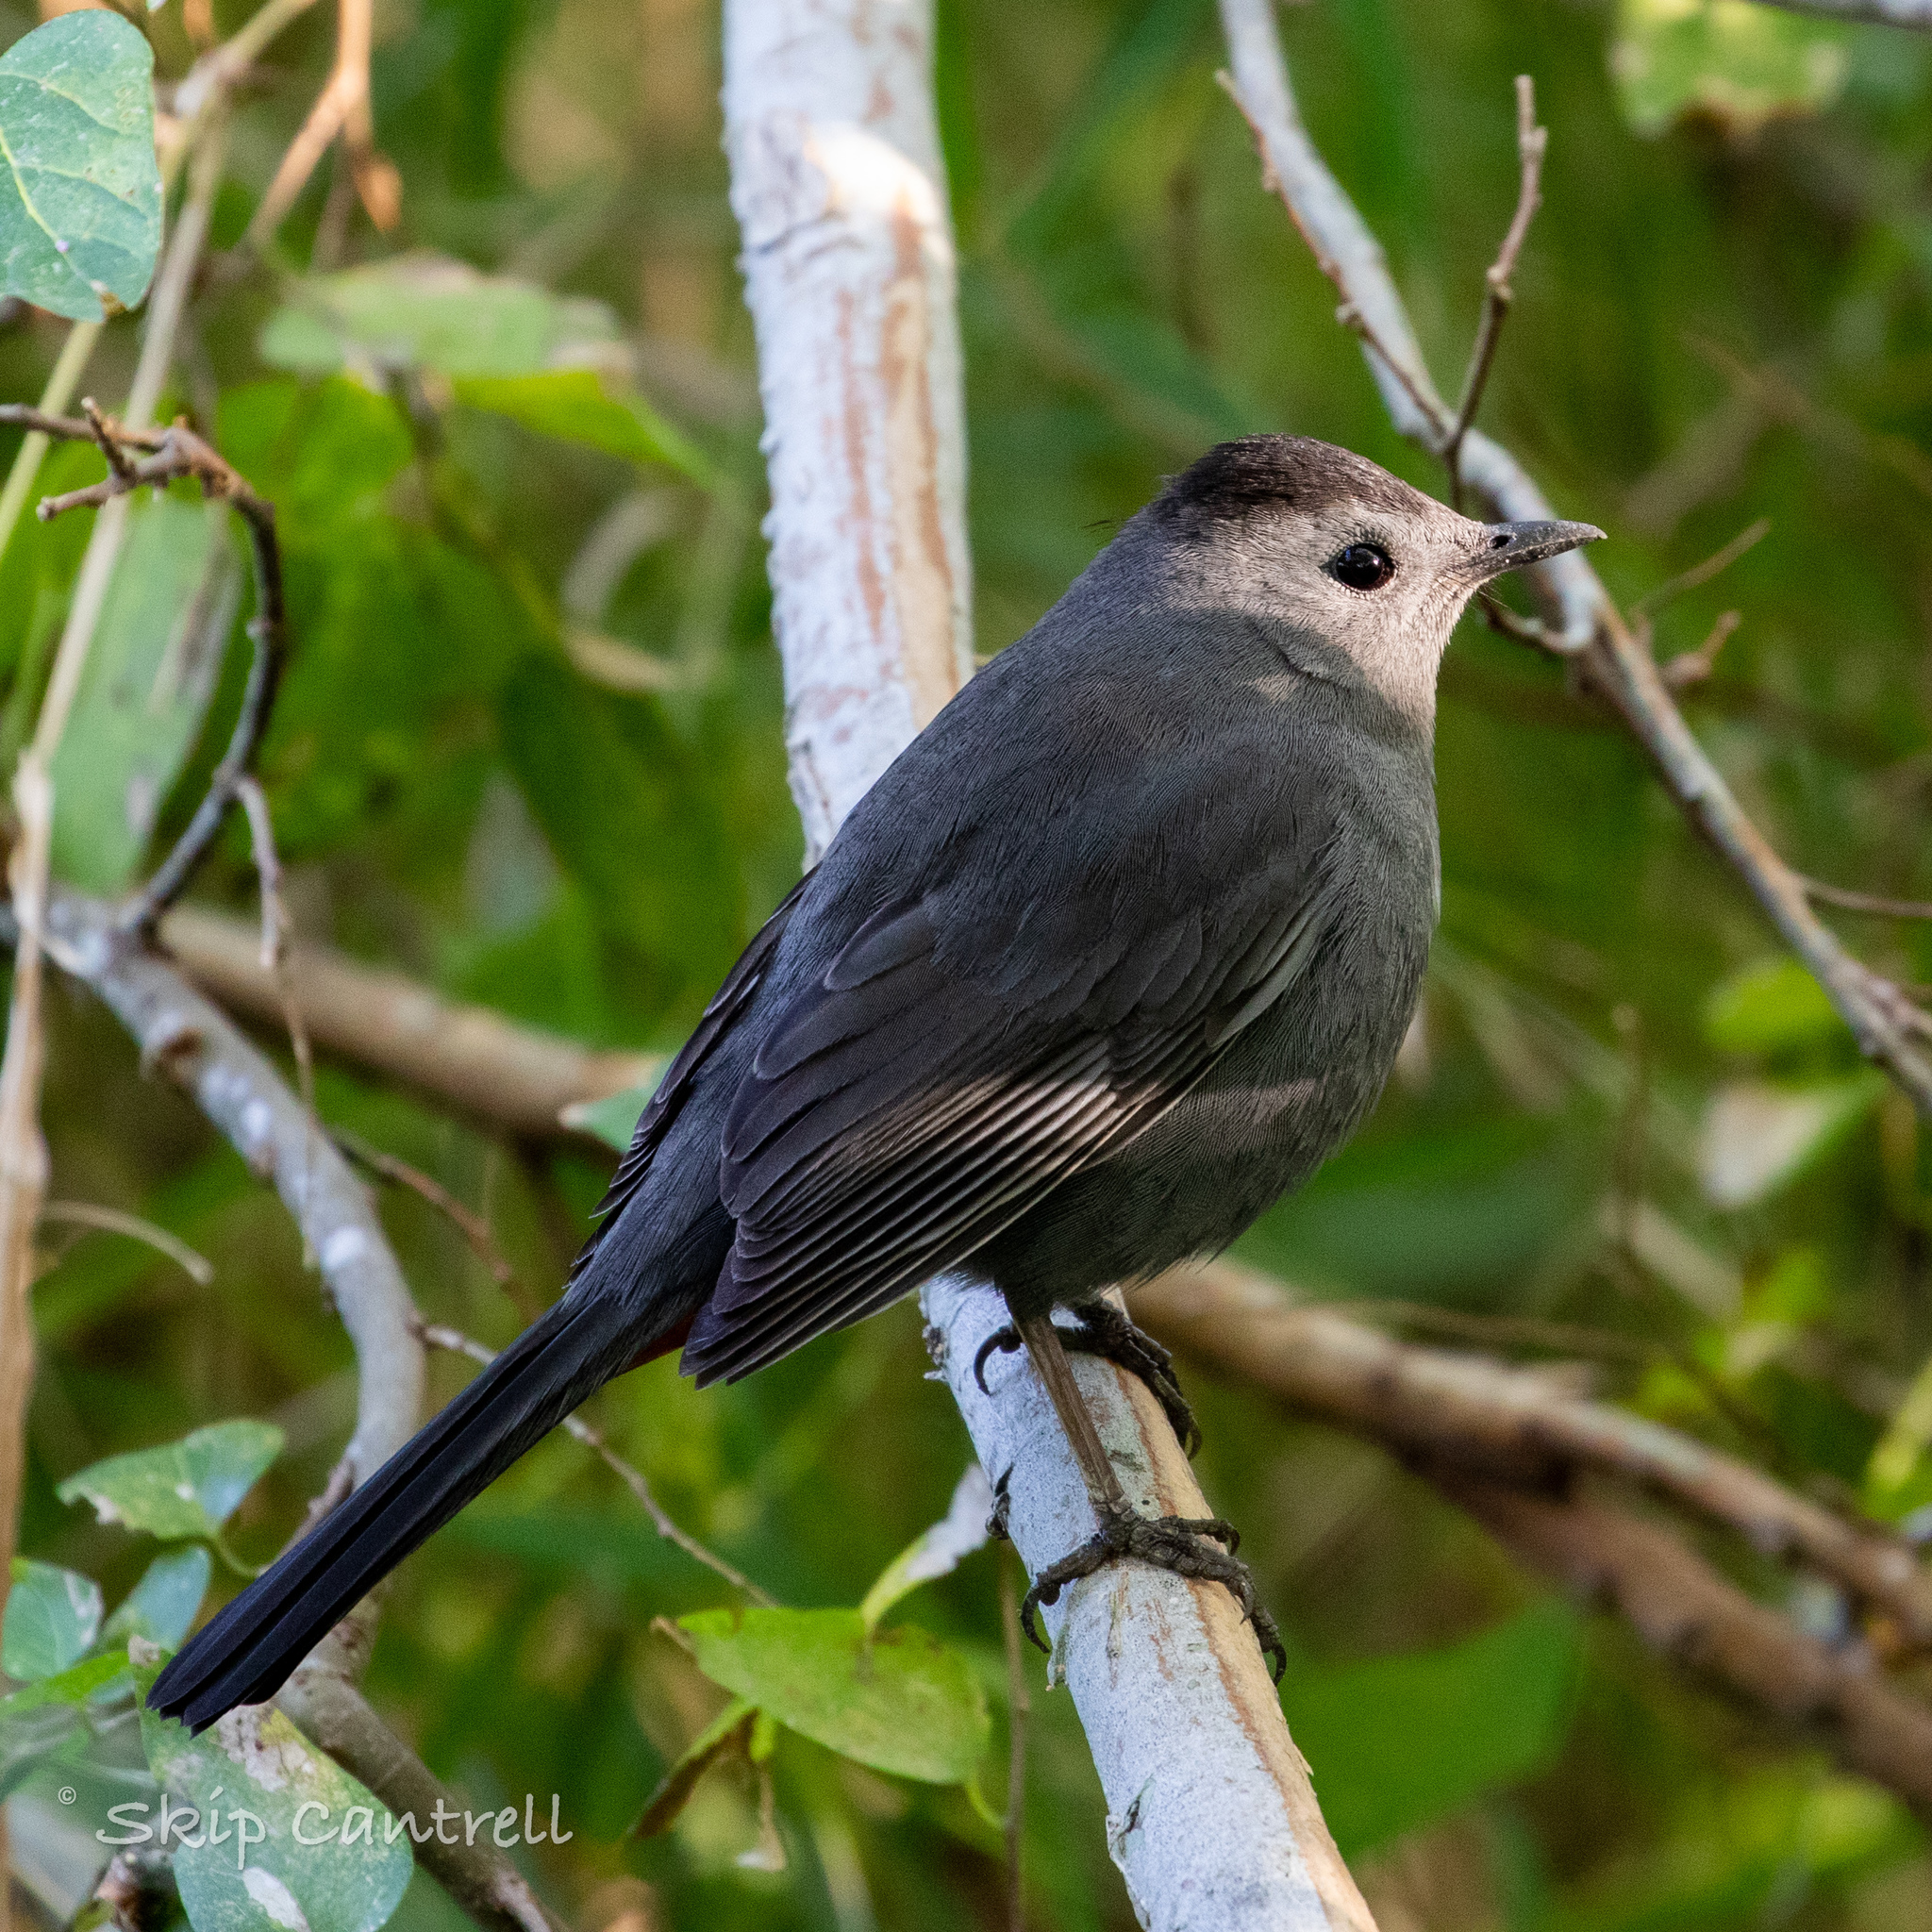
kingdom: Animalia
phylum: Chordata
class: Aves
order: Passeriformes
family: Mimidae
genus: Dumetella
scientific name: Dumetella carolinensis
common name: Gray catbird
